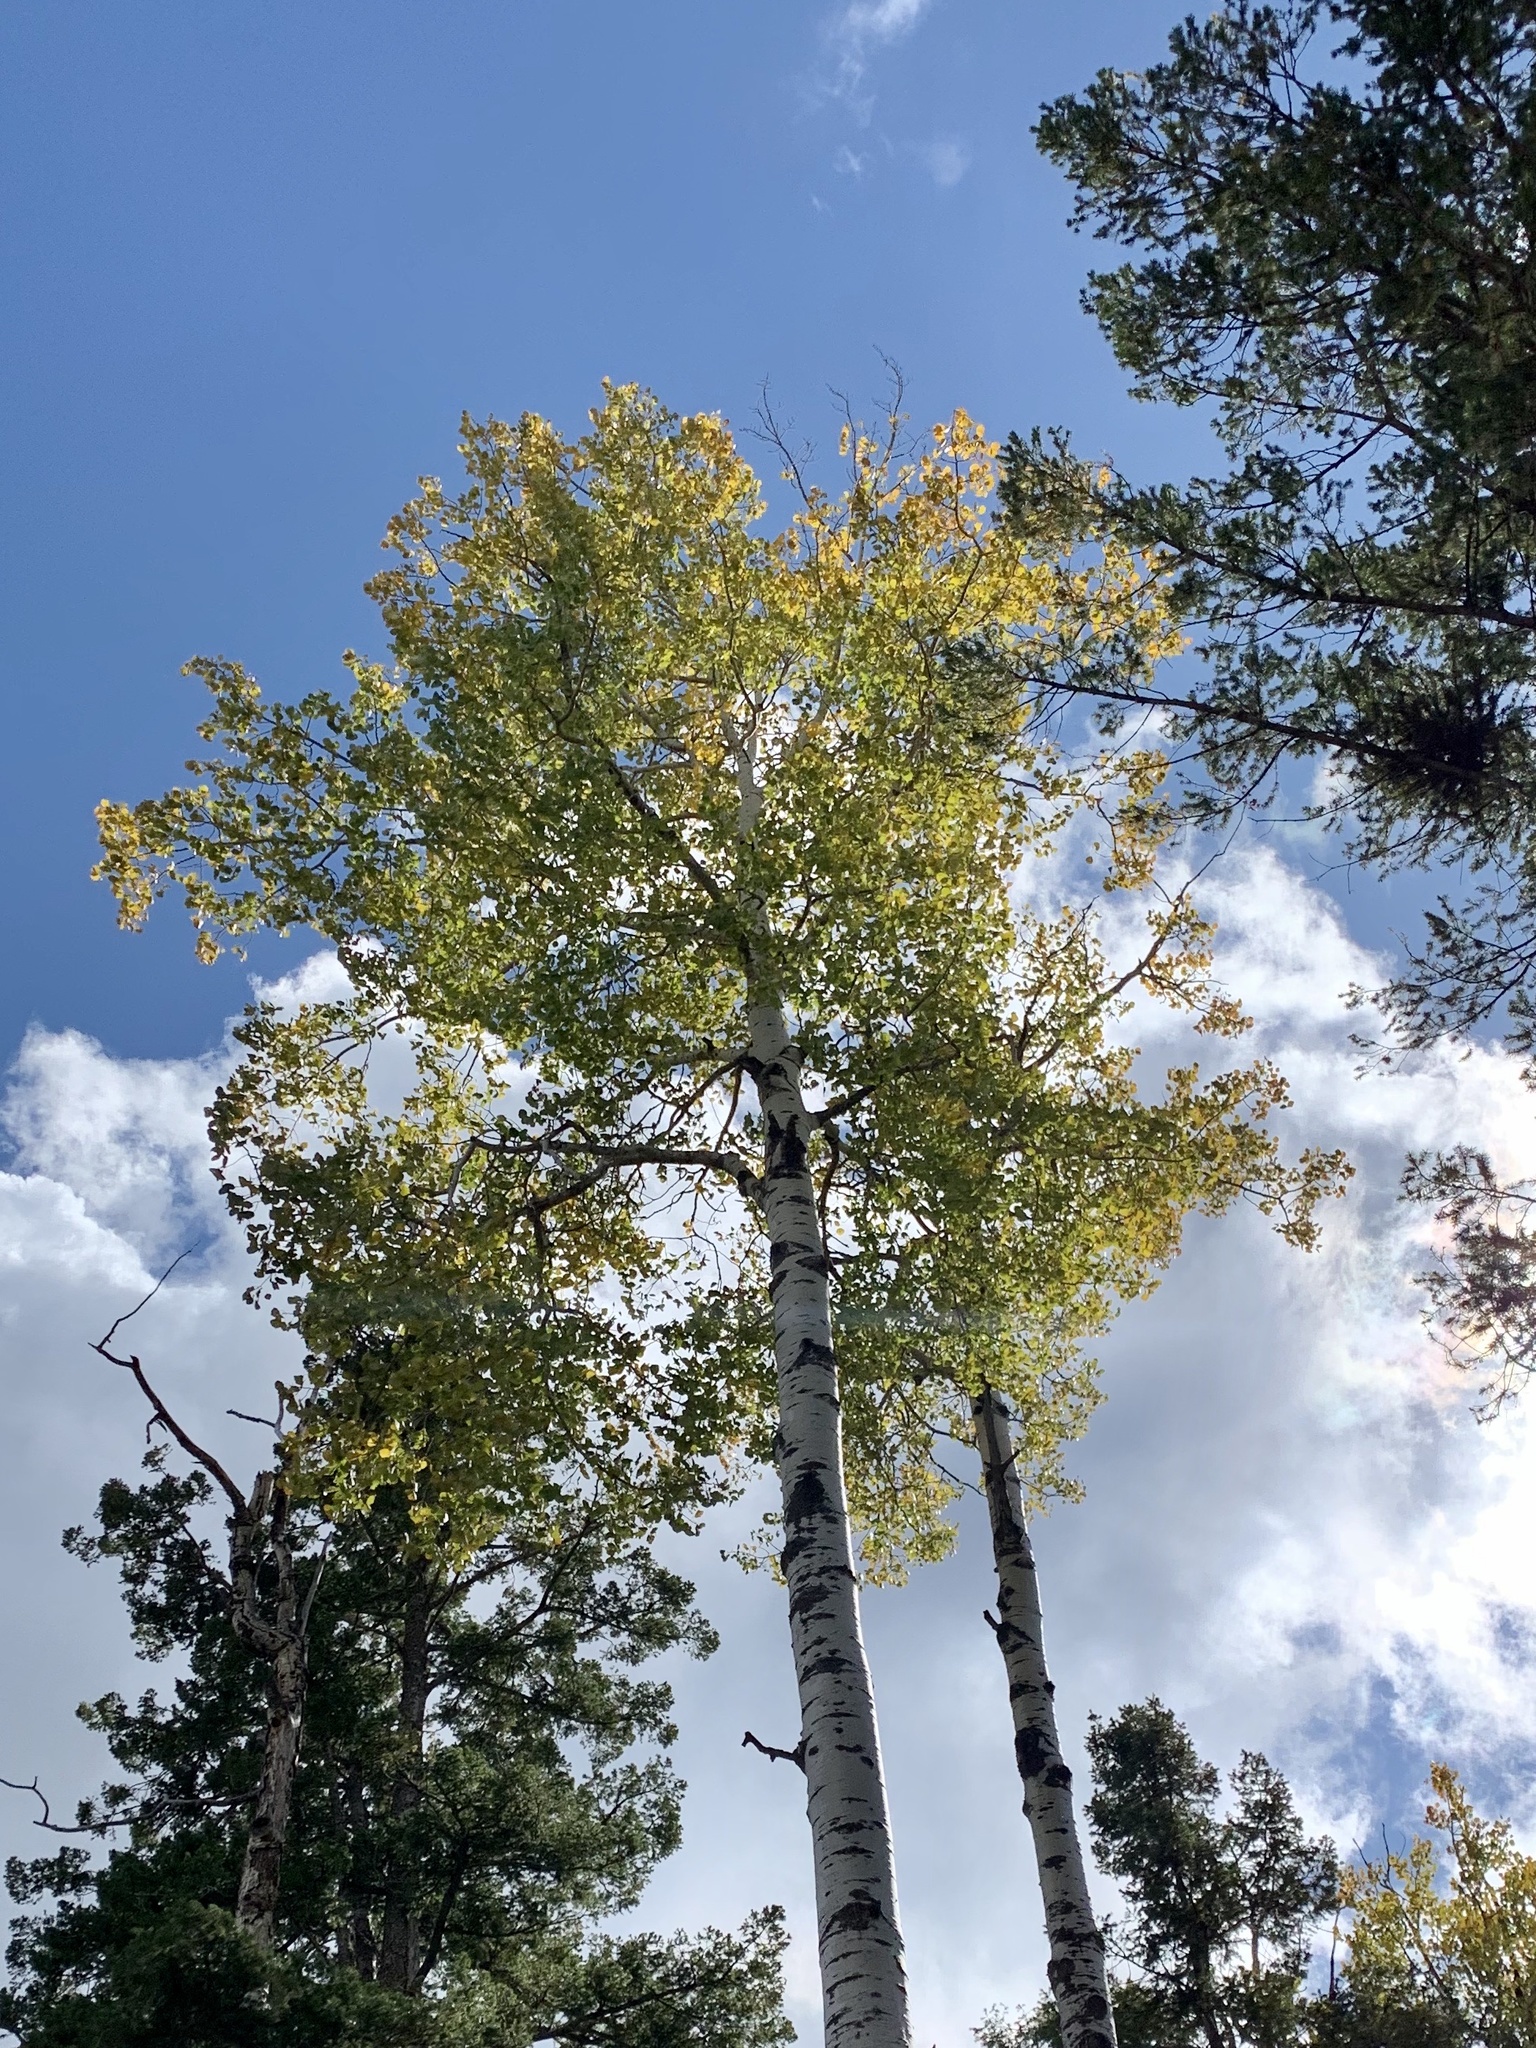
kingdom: Plantae
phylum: Tracheophyta
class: Magnoliopsida
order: Malpighiales
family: Salicaceae
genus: Populus
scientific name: Populus tremuloides
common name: Quaking aspen
